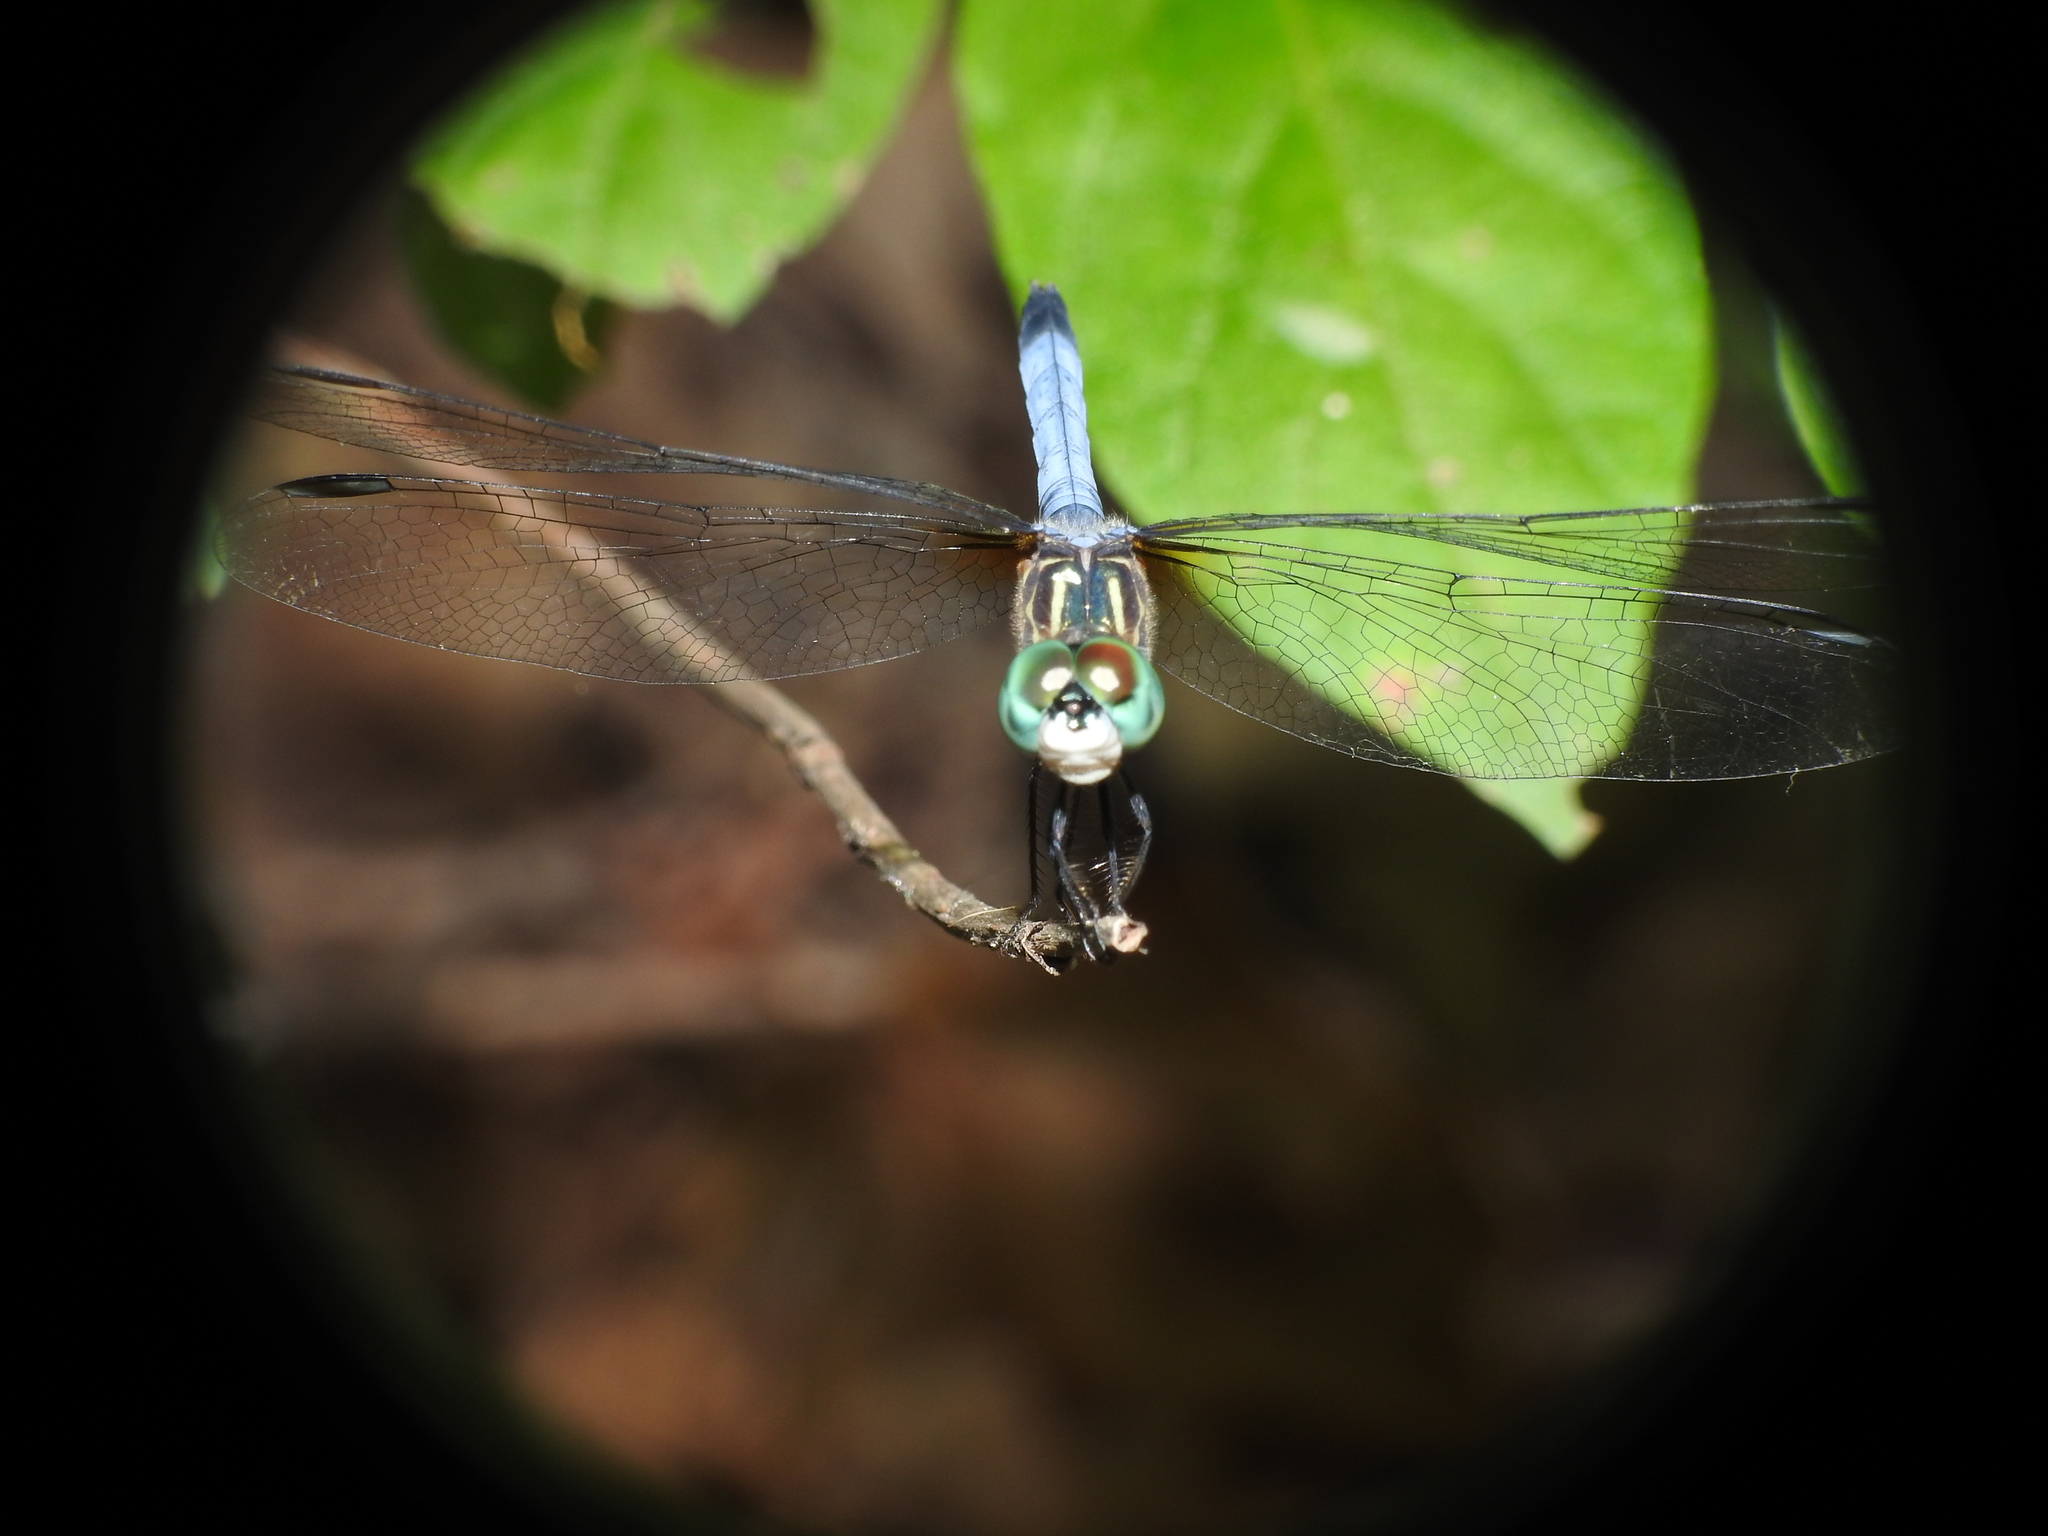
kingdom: Animalia
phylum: Arthropoda
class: Insecta
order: Odonata
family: Libellulidae
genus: Pachydiplax
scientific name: Pachydiplax longipennis
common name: Blue dasher
